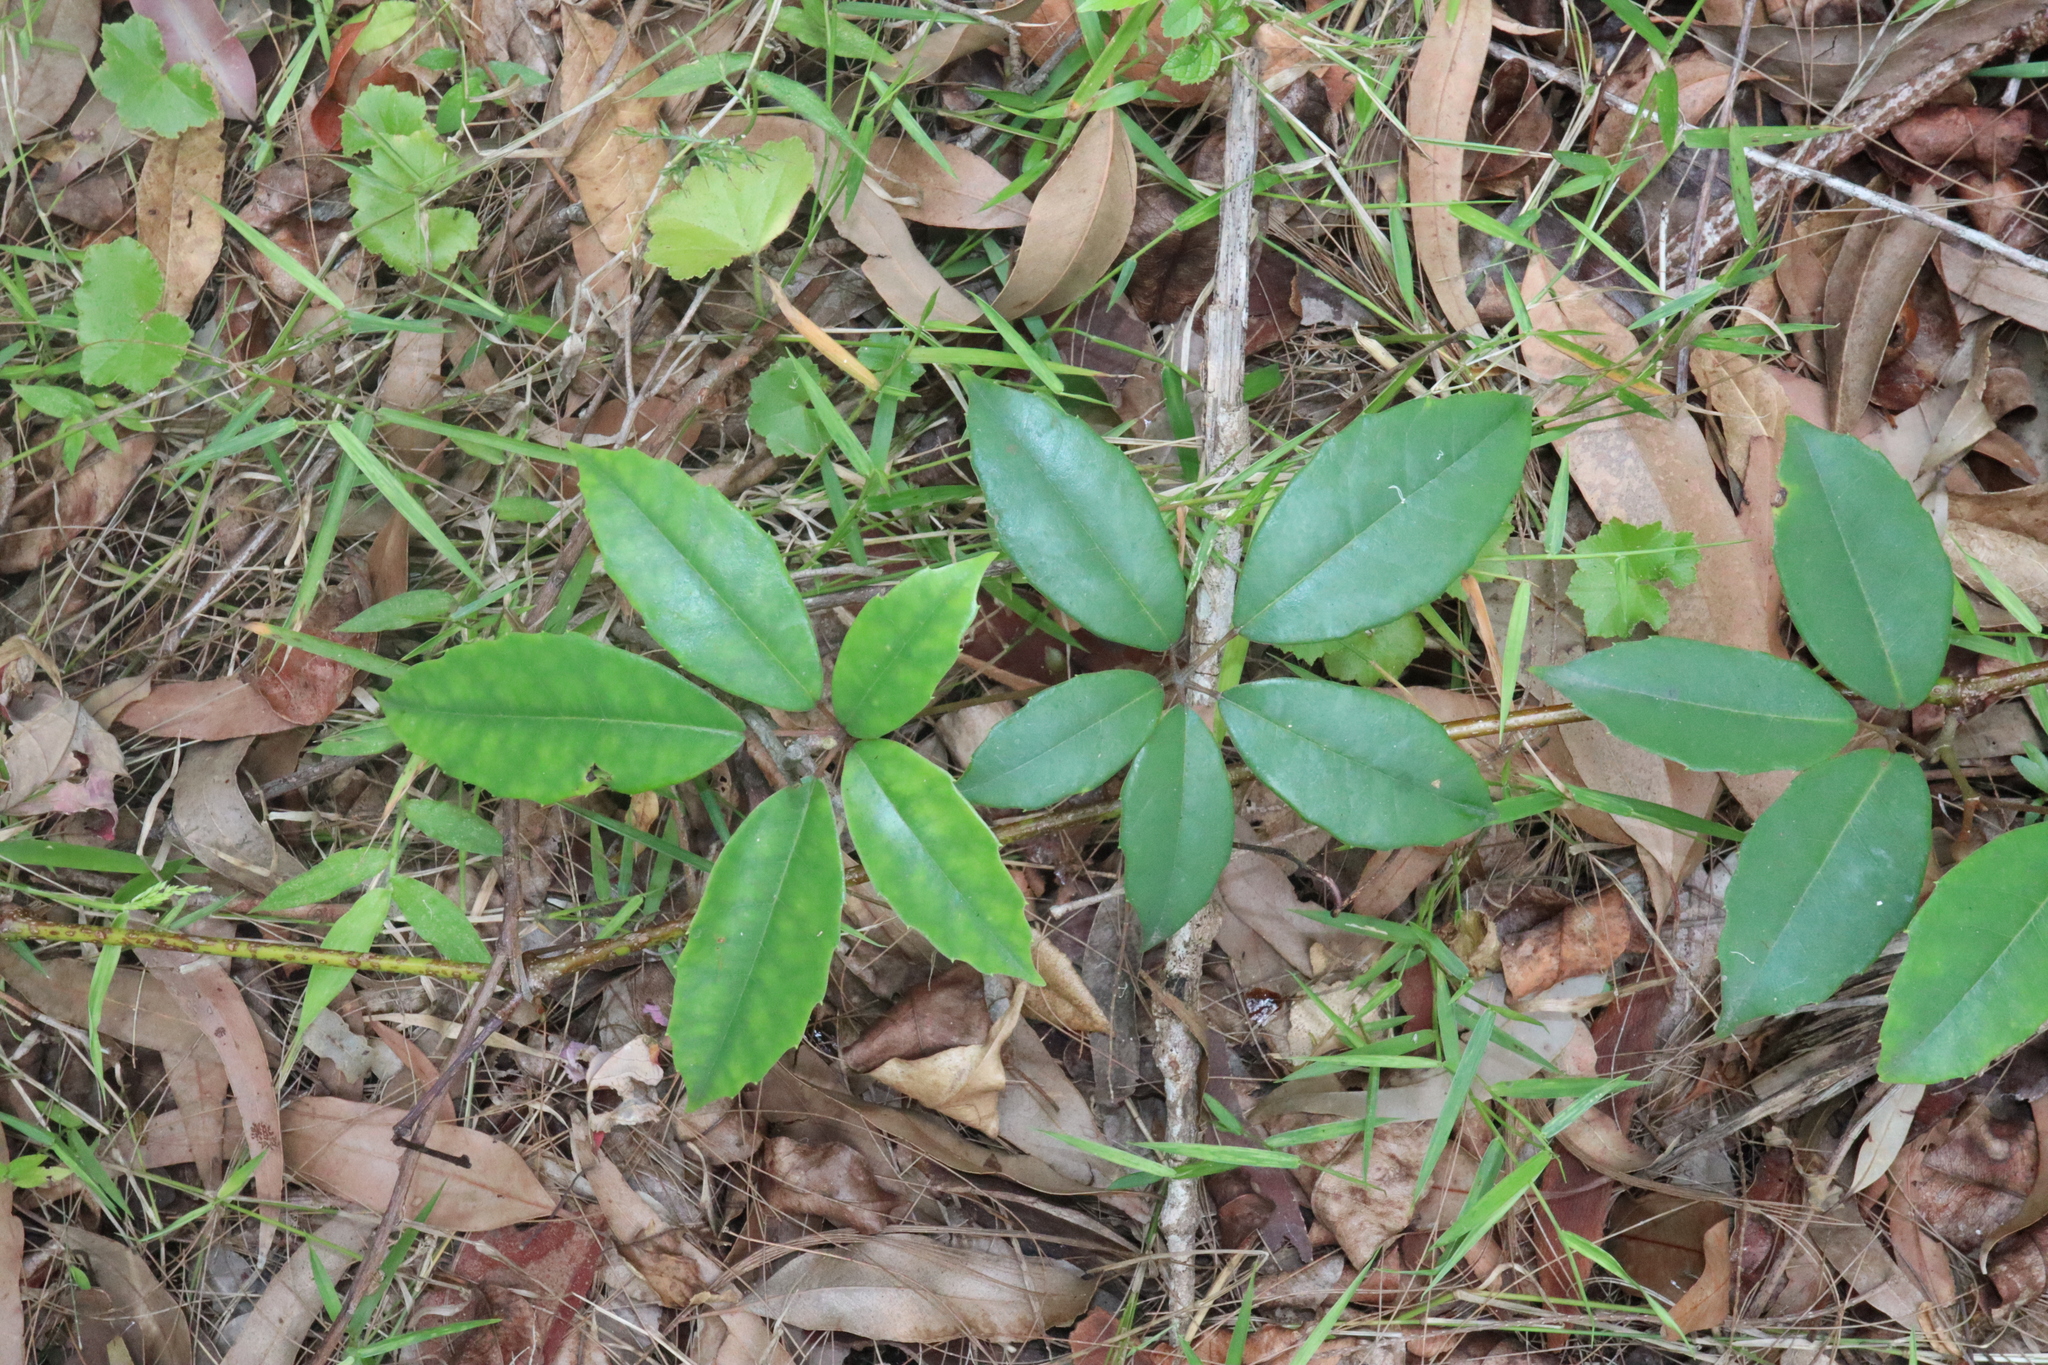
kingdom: Plantae
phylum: Tracheophyta
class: Magnoliopsida
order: Vitales
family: Vitaceae
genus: Nothocissus
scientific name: Nothocissus hypoglauca
